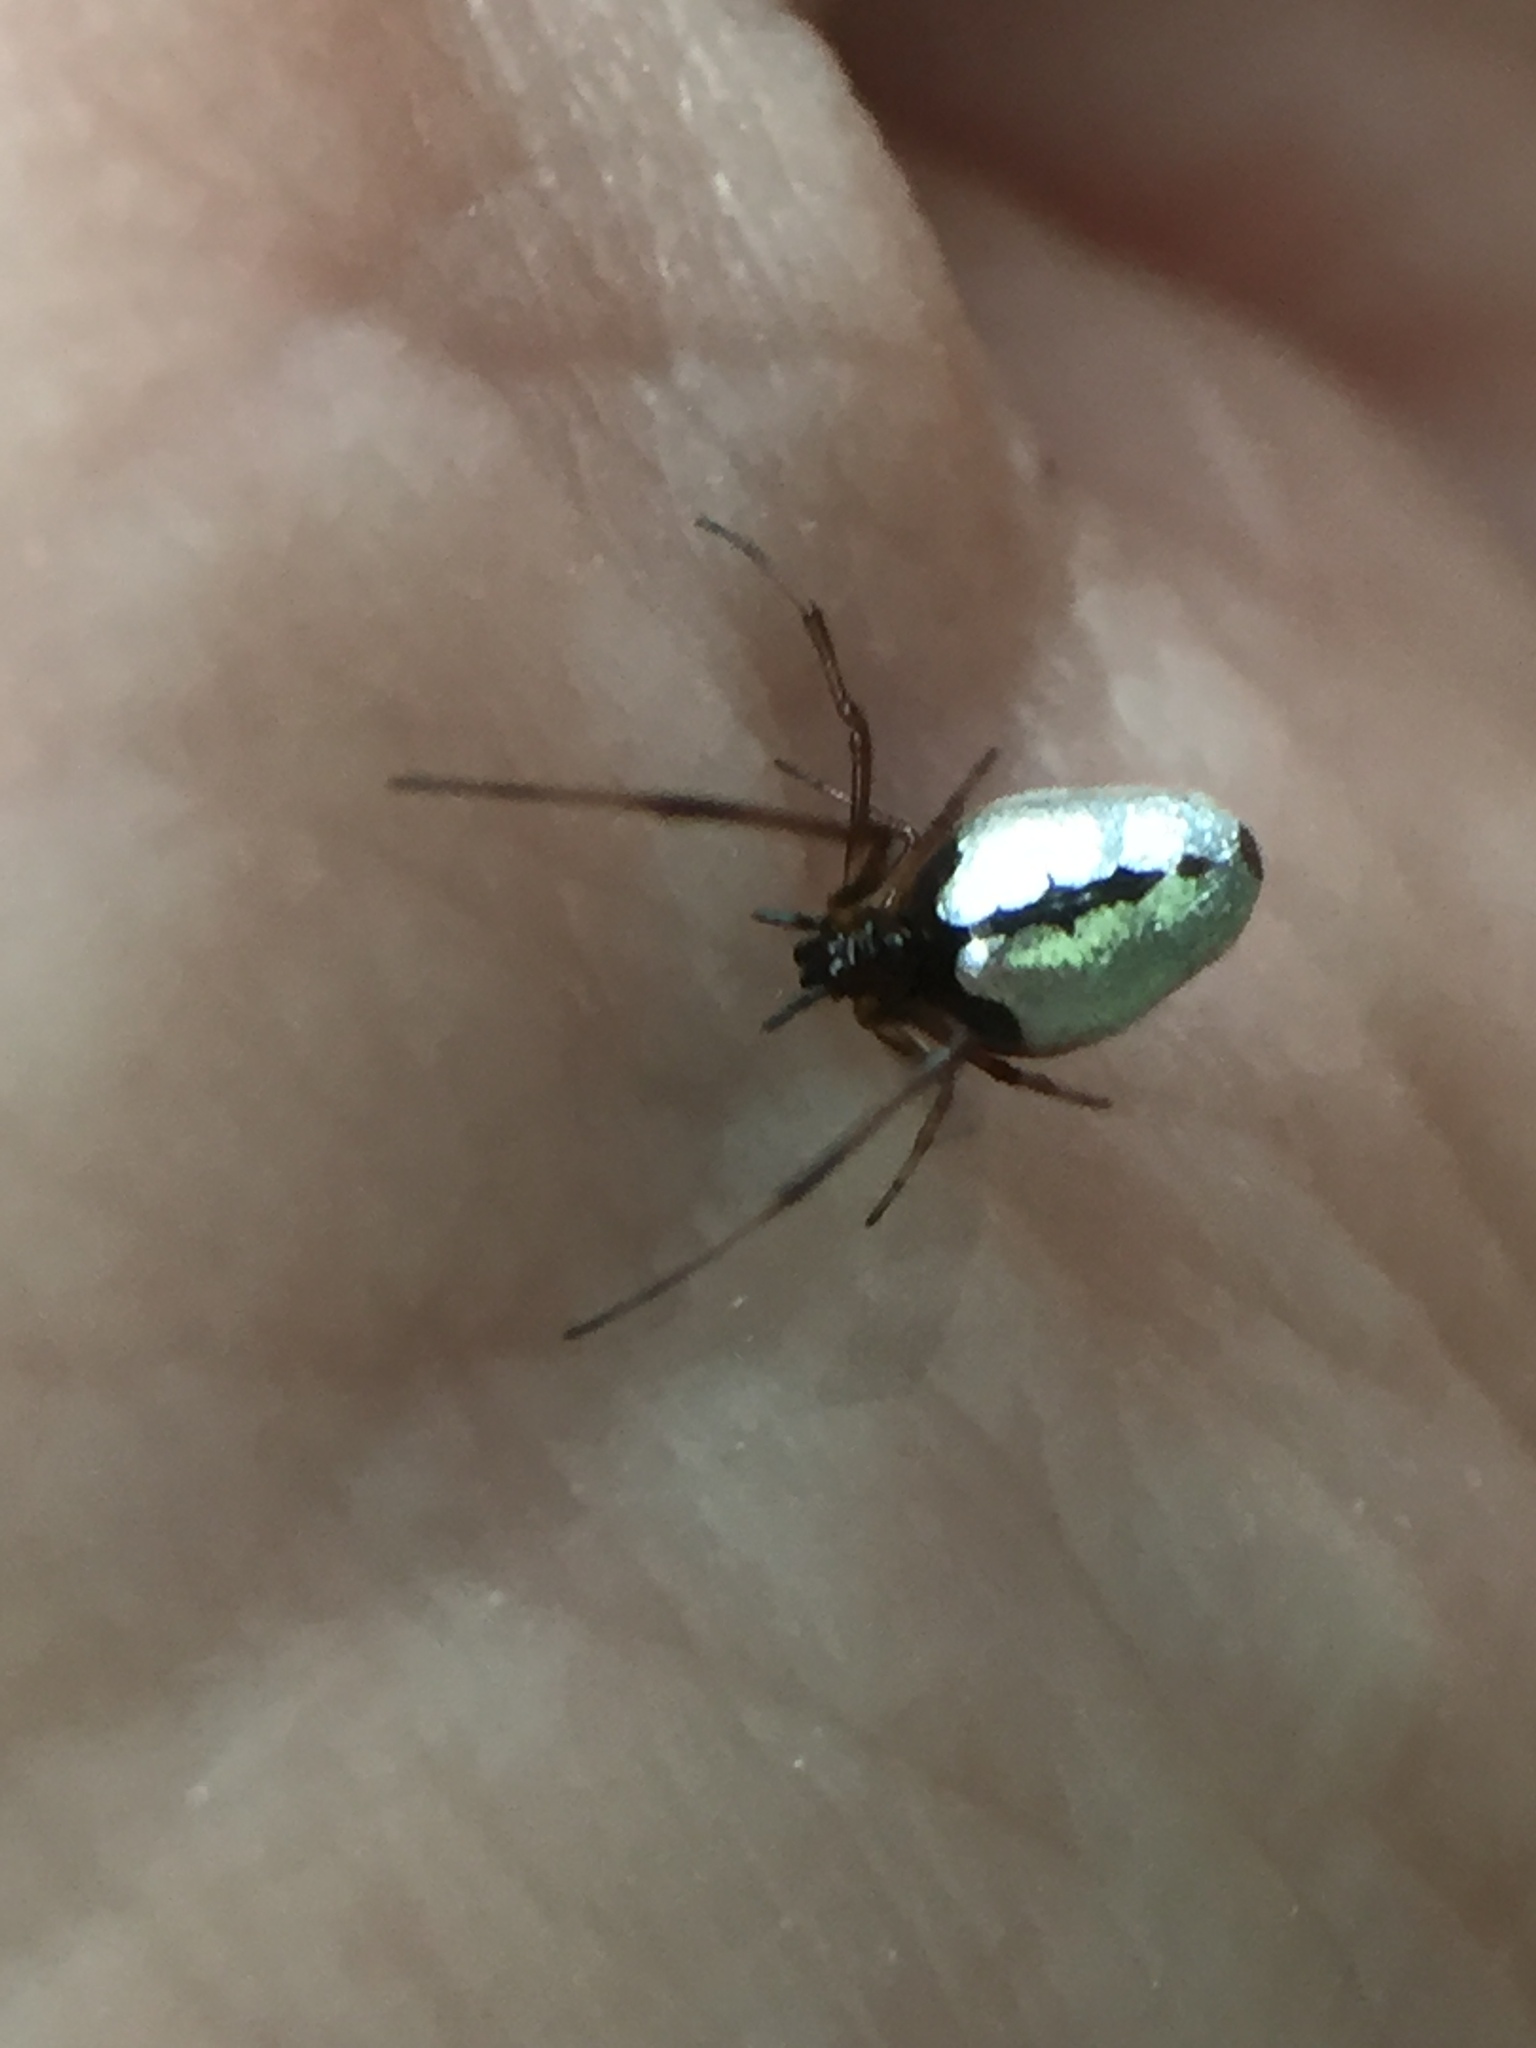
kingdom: Animalia
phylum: Arthropoda
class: Arachnida
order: Araneae
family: Theridiidae
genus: Argyrodes
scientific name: Argyrodes antipodianus
